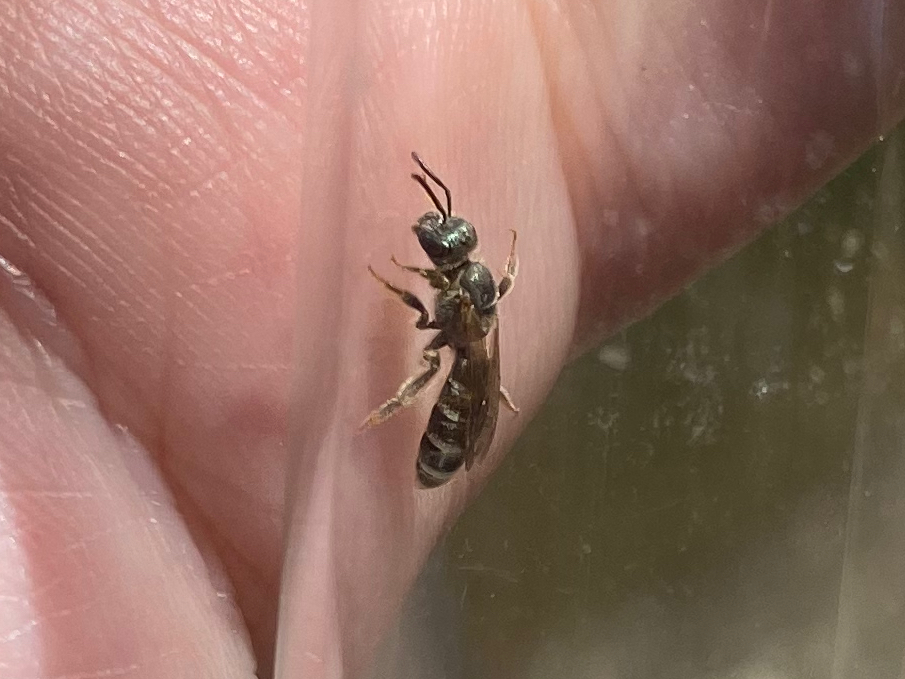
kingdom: Animalia
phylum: Arthropoda
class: Insecta
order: Hymenoptera
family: Halictidae
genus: Halictus
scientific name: Halictus confusus
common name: Southern bronze furrow bee
